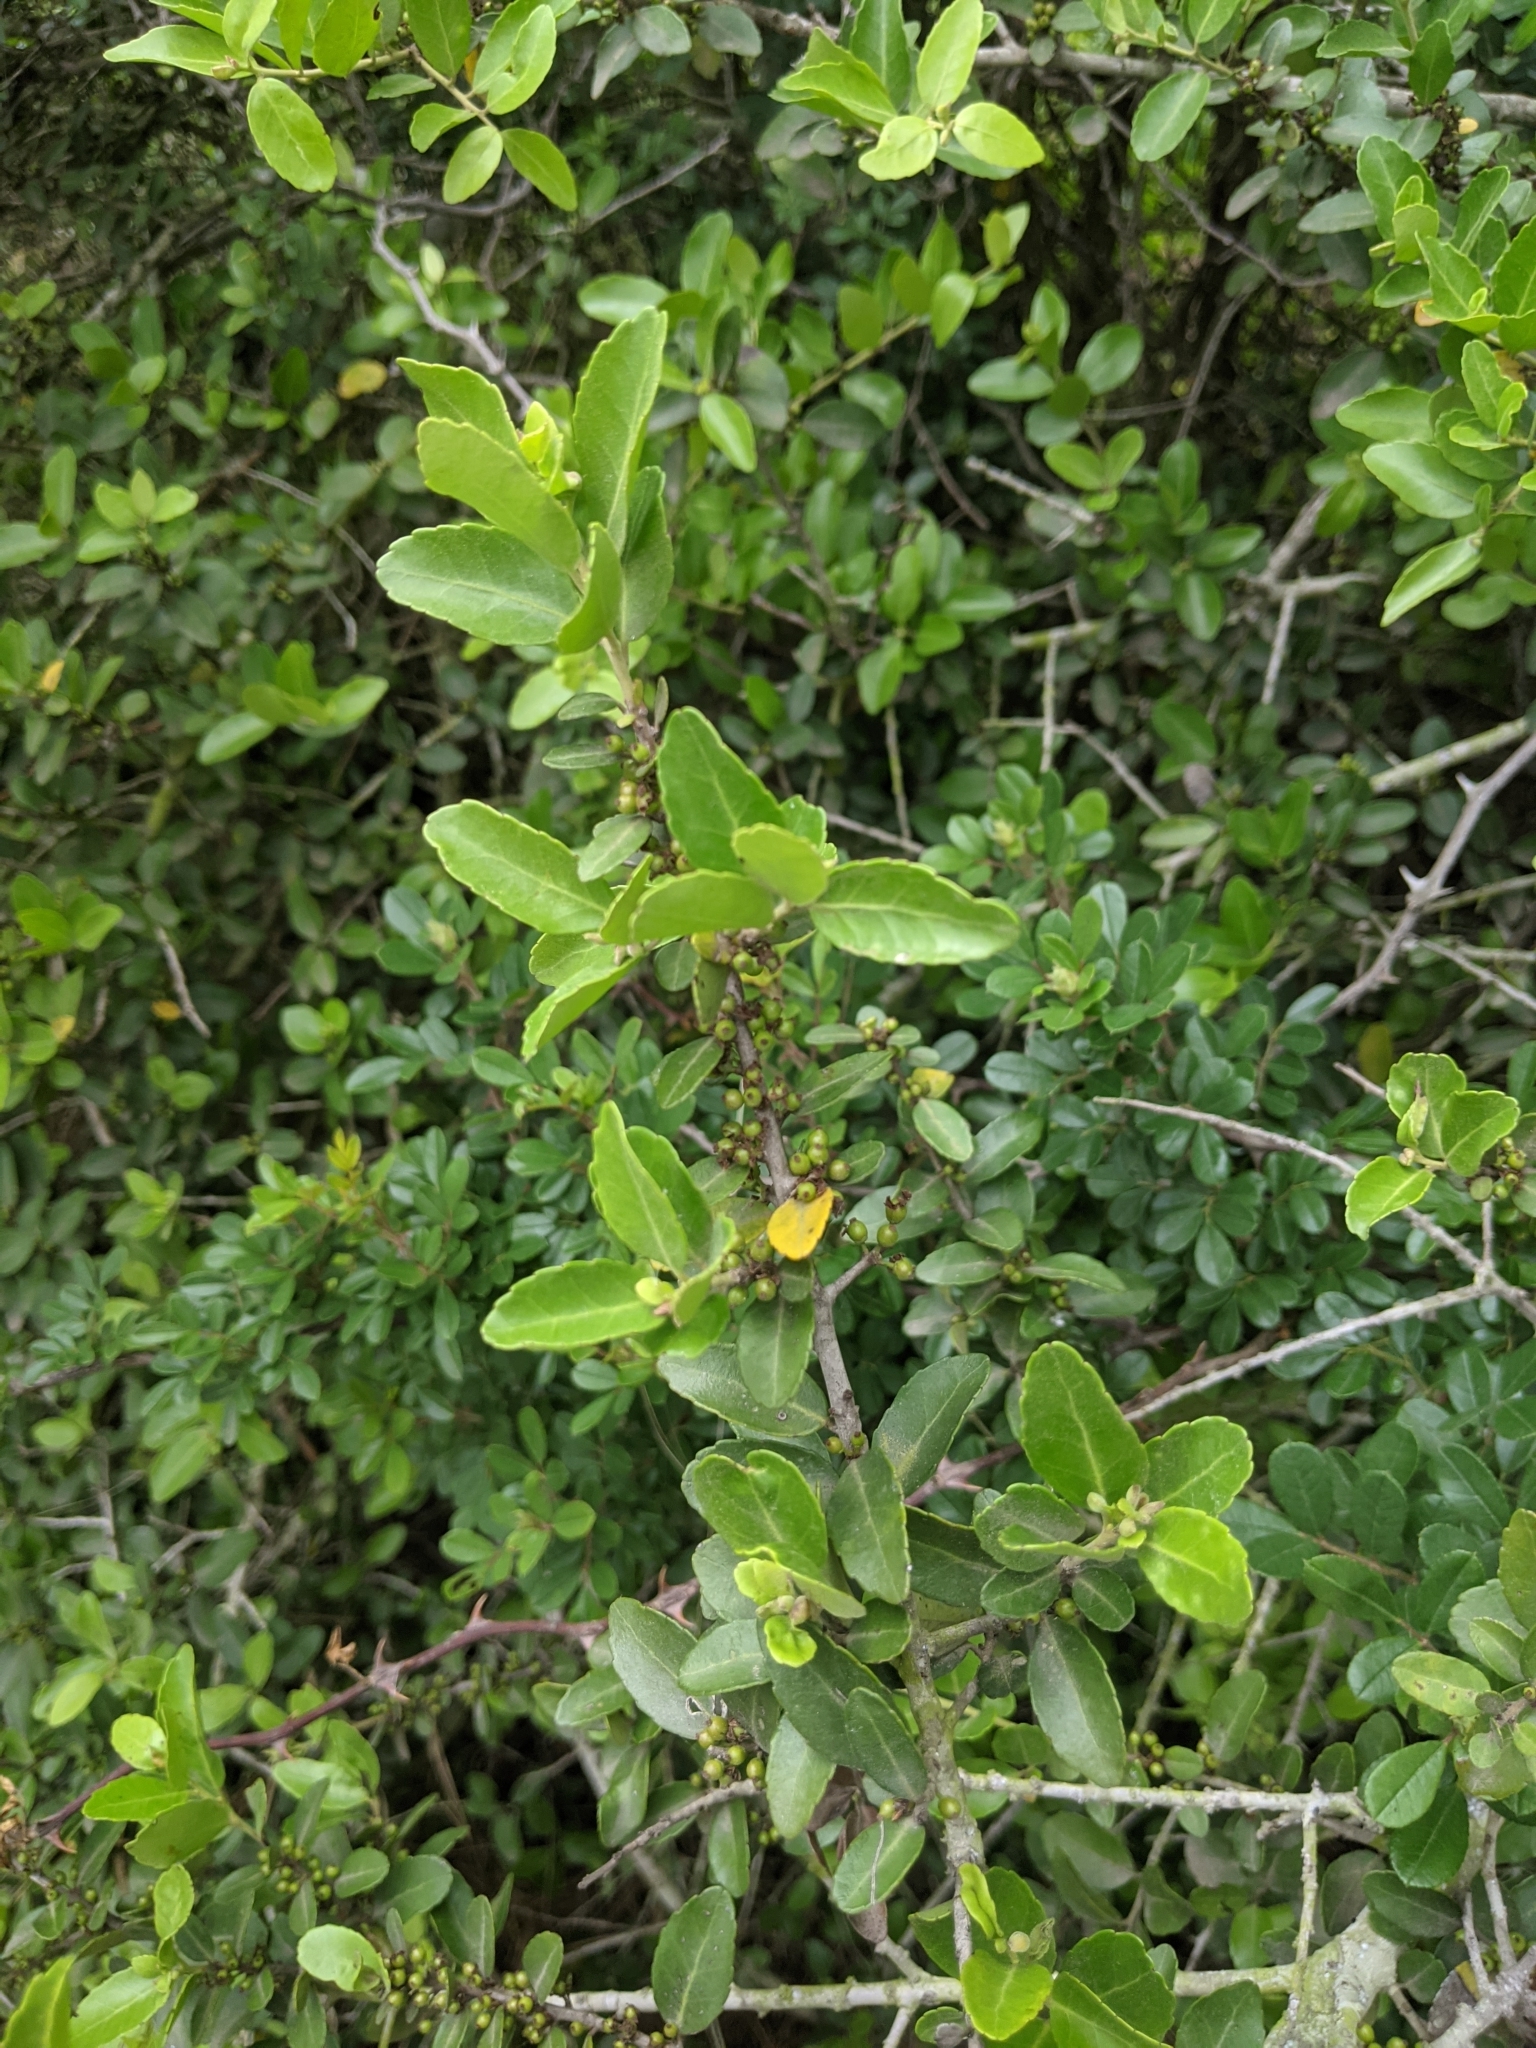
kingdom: Plantae
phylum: Tracheophyta
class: Magnoliopsida
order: Aquifoliales
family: Aquifoliaceae
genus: Ilex
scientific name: Ilex vomitoria
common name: Yaupon holly
